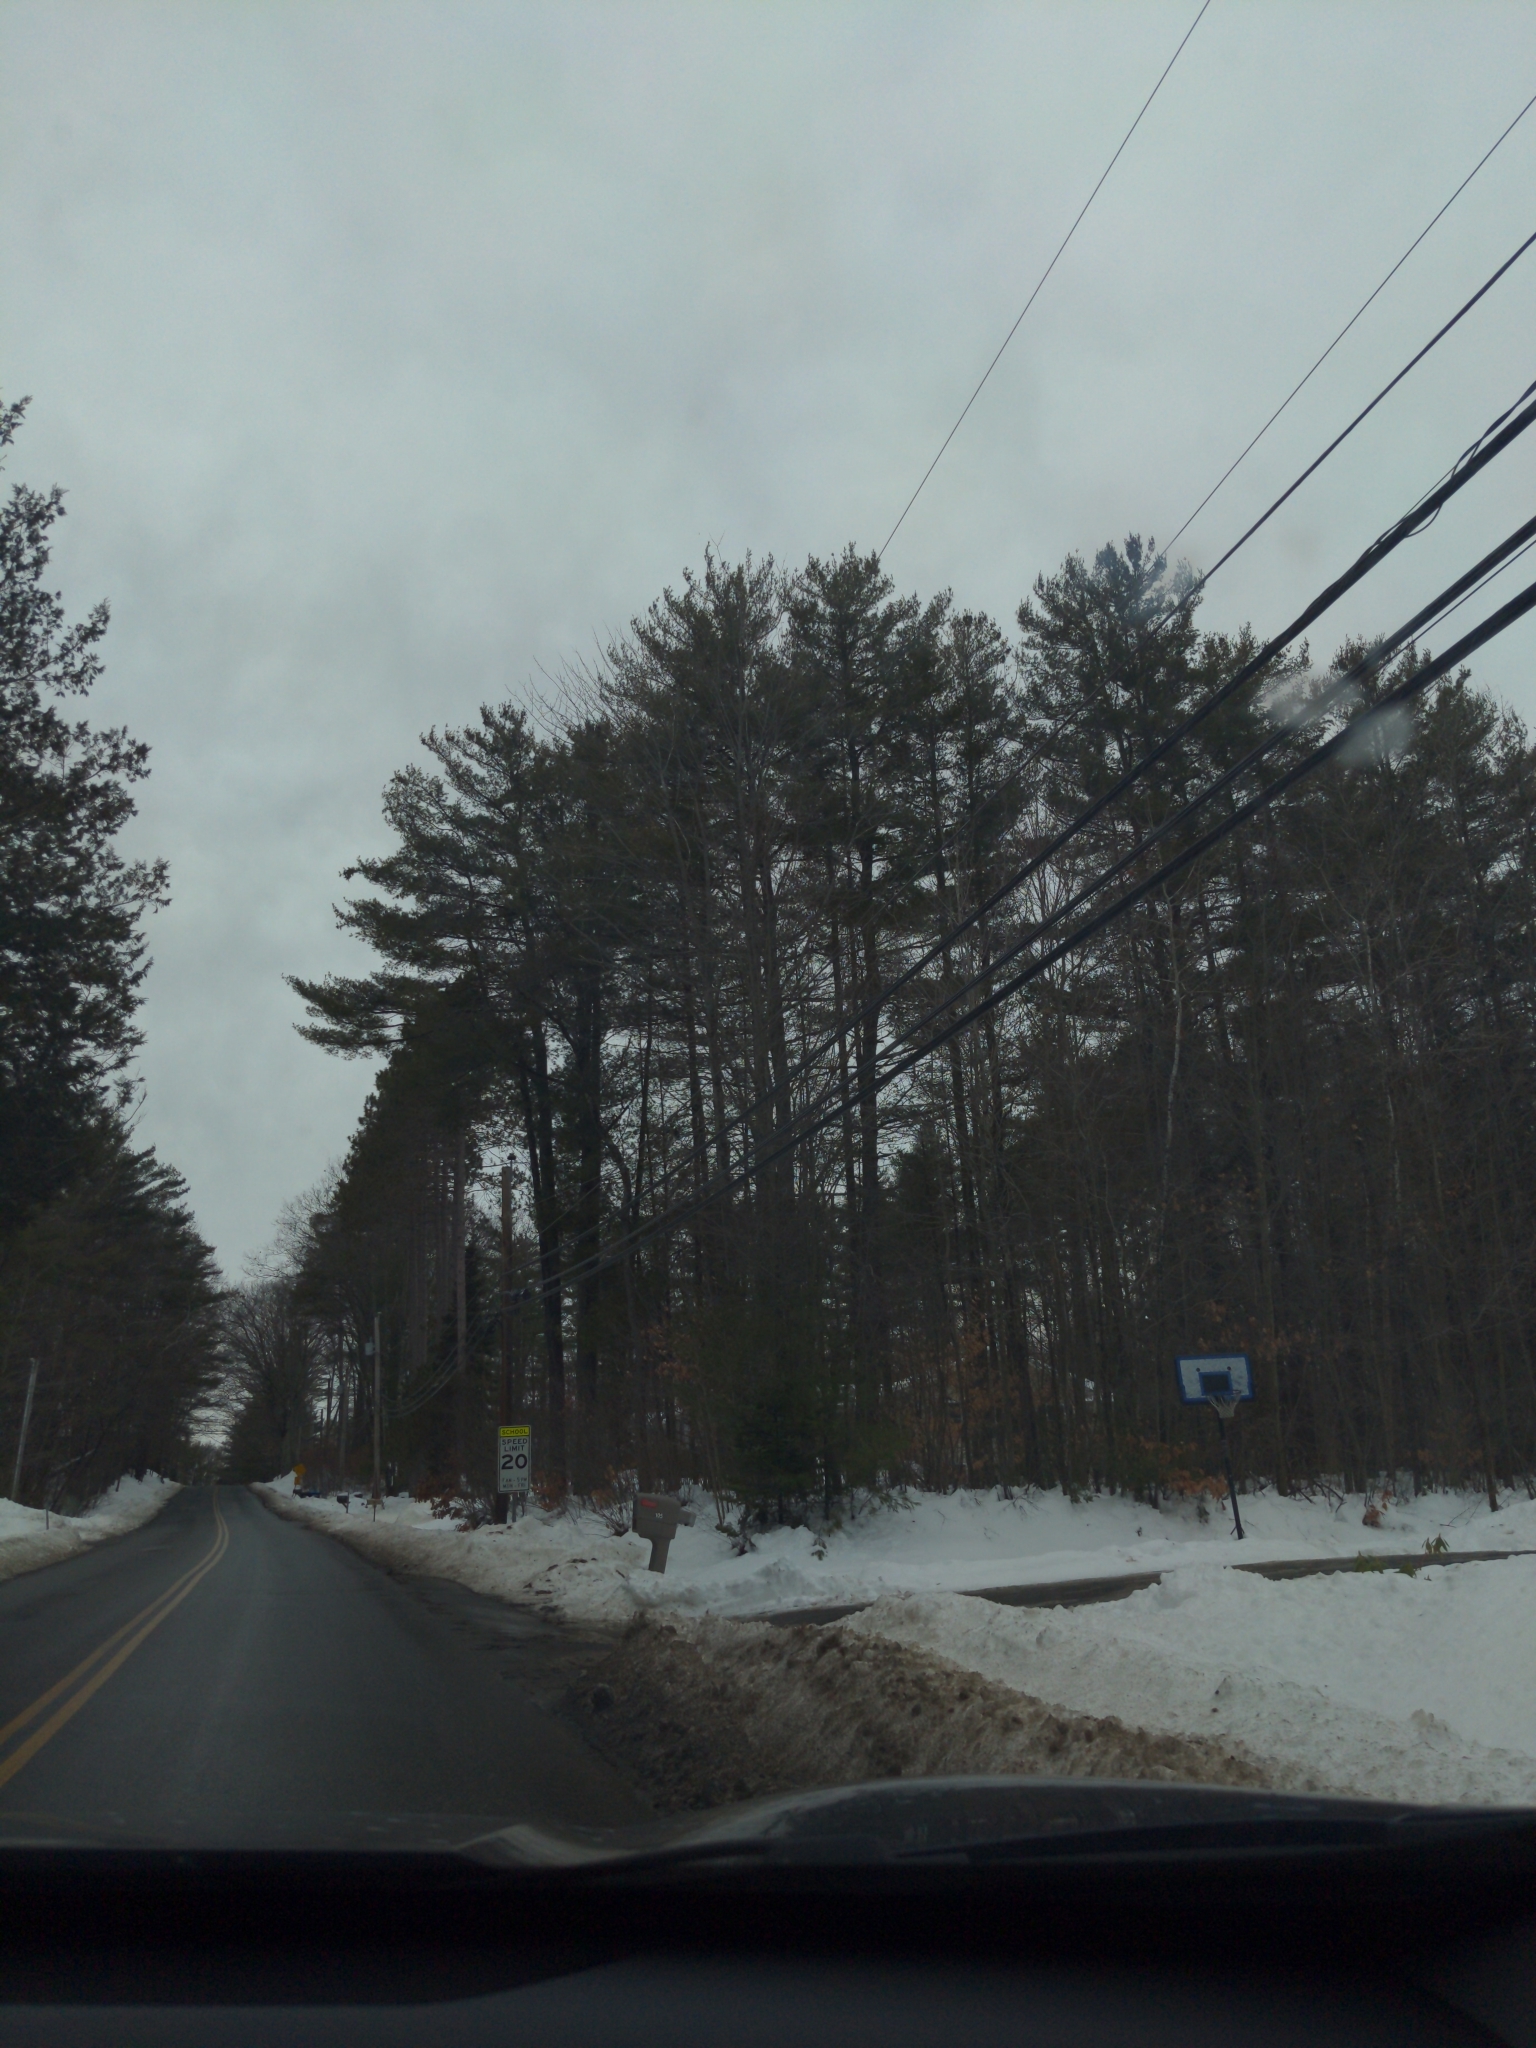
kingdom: Plantae
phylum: Tracheophyta
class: Pinopsida
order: Pinales
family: Pinaceae
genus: Pinus
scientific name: Pinus strobus
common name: Weymouth pine
